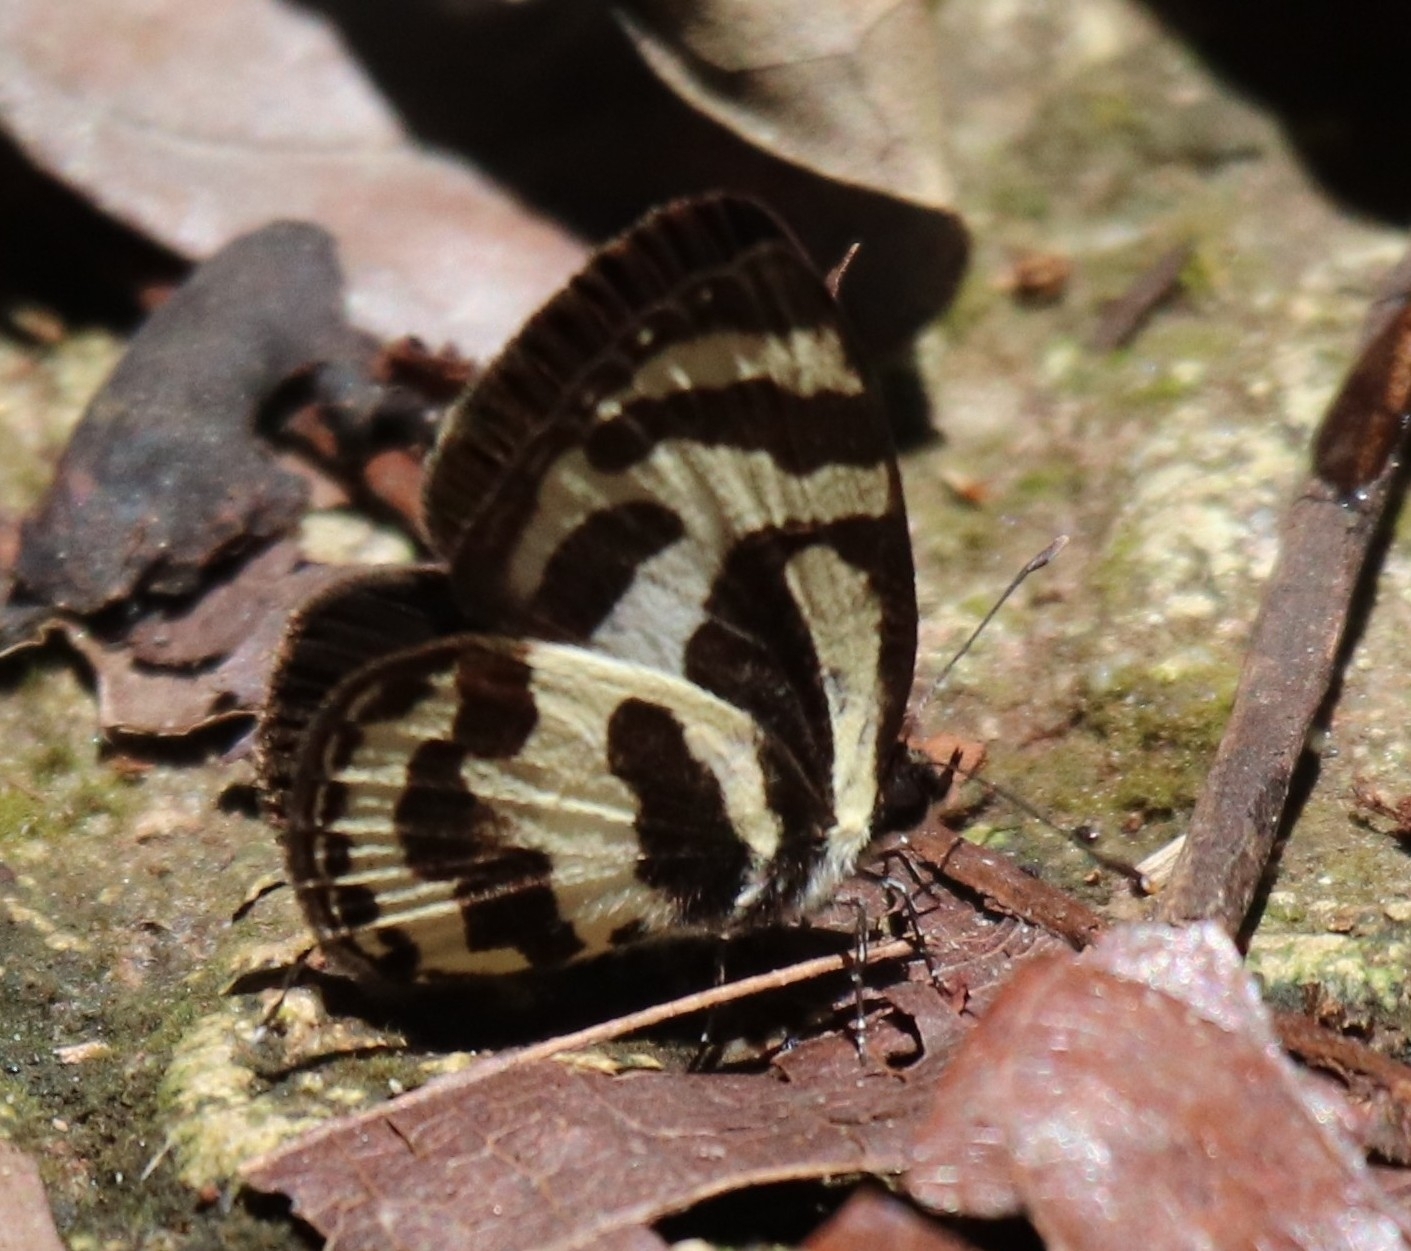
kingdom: Animalia
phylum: Arthropoda
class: Insecta
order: Lepidoptera
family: Lycaenidae
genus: Caleta
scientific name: Caleta caleta
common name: Angled pierrot
